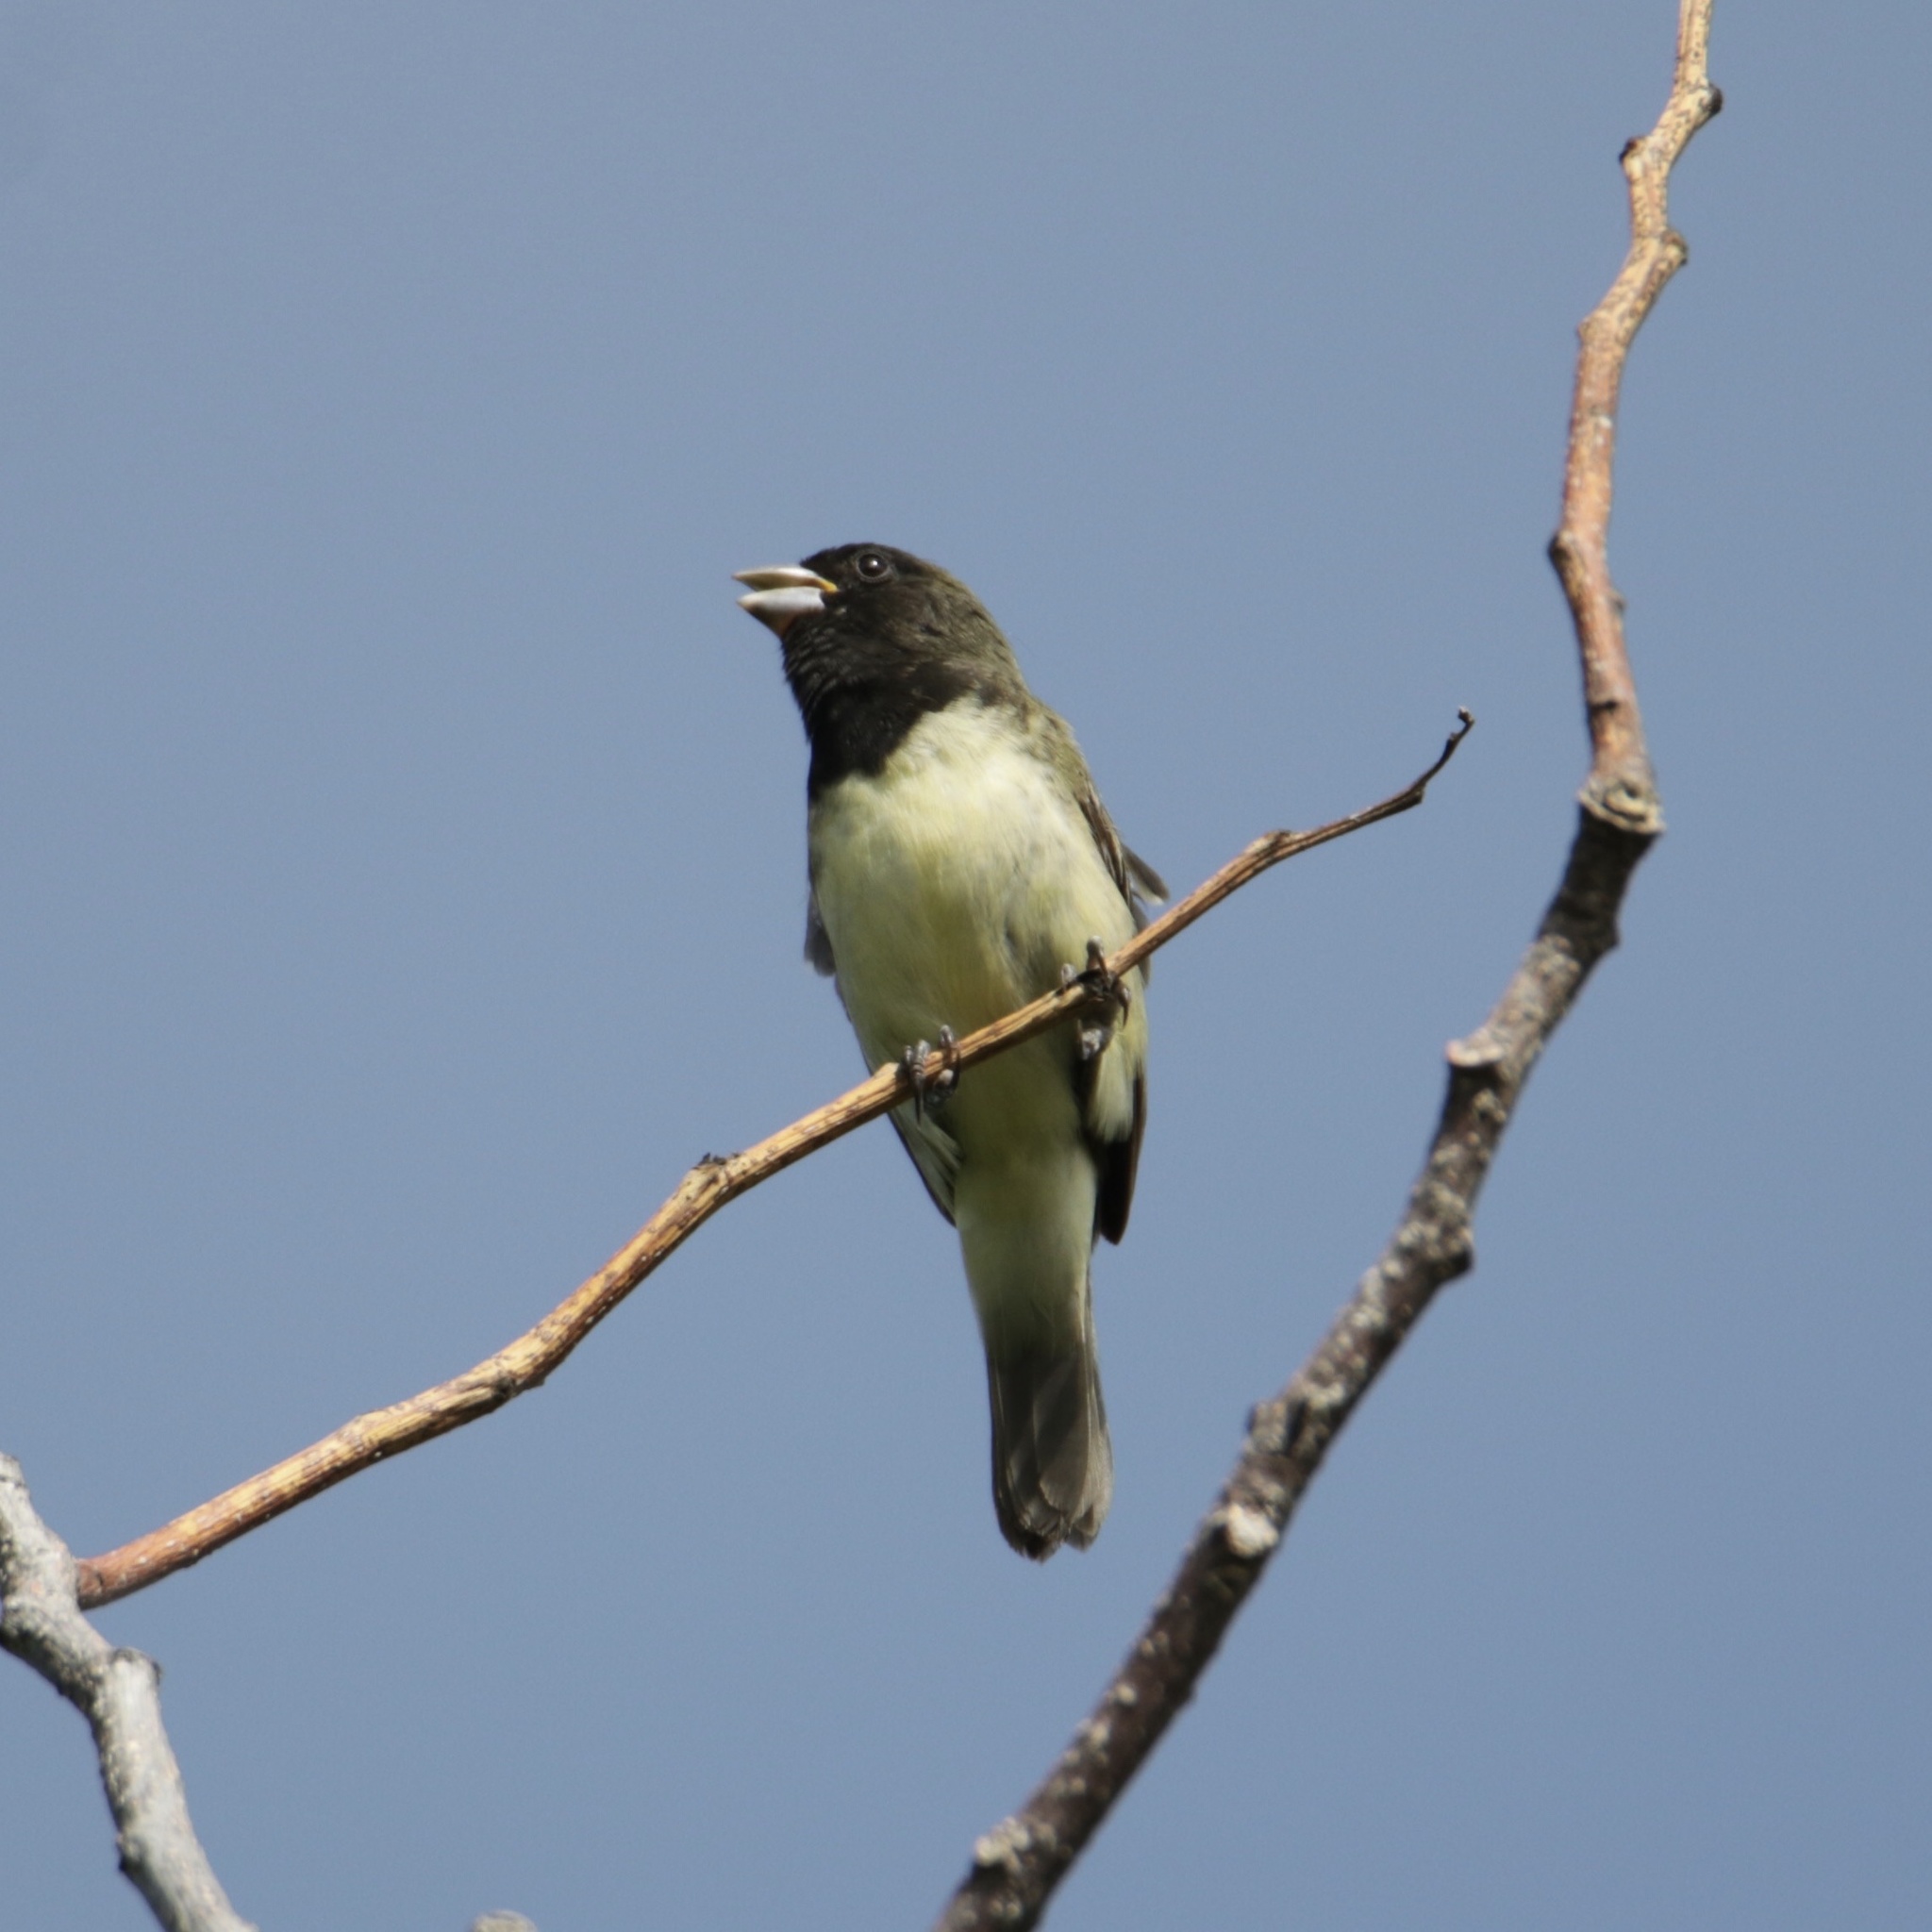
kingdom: Animalia
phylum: Chordata
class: Aves
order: Passeriformes
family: Thraupidae
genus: Sporophila
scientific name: Sporophila nigricollis
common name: Yellow-bellied seedeater
